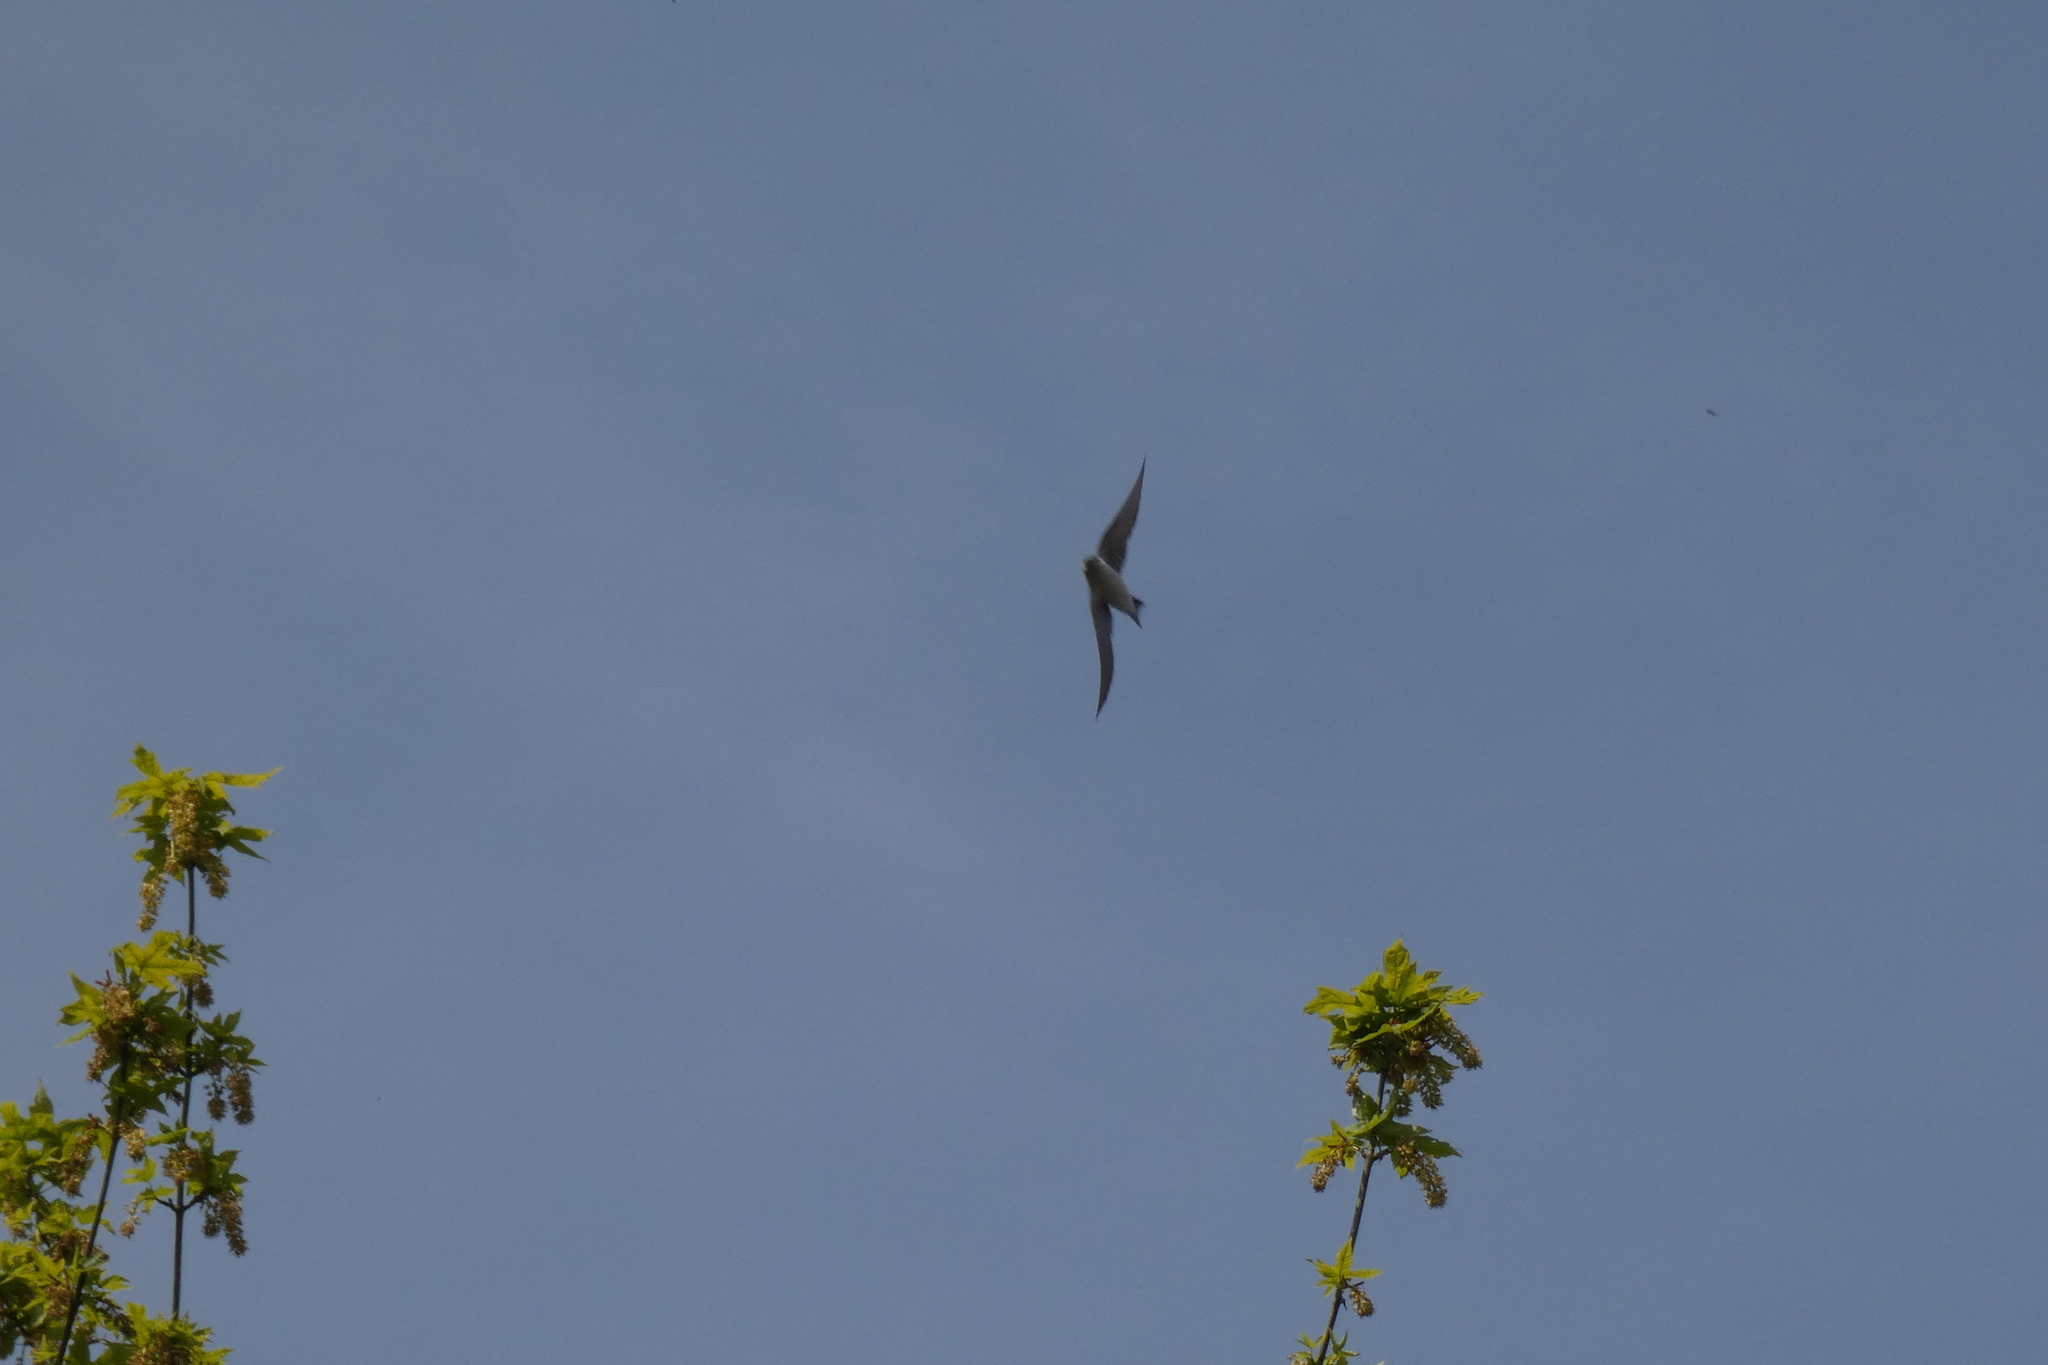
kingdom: Animalia
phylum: Chordata
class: Aves
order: Passeriformes
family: Hirundinidae
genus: Tachycineta
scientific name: Tachycineta thalassina
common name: Violet-green swallow
